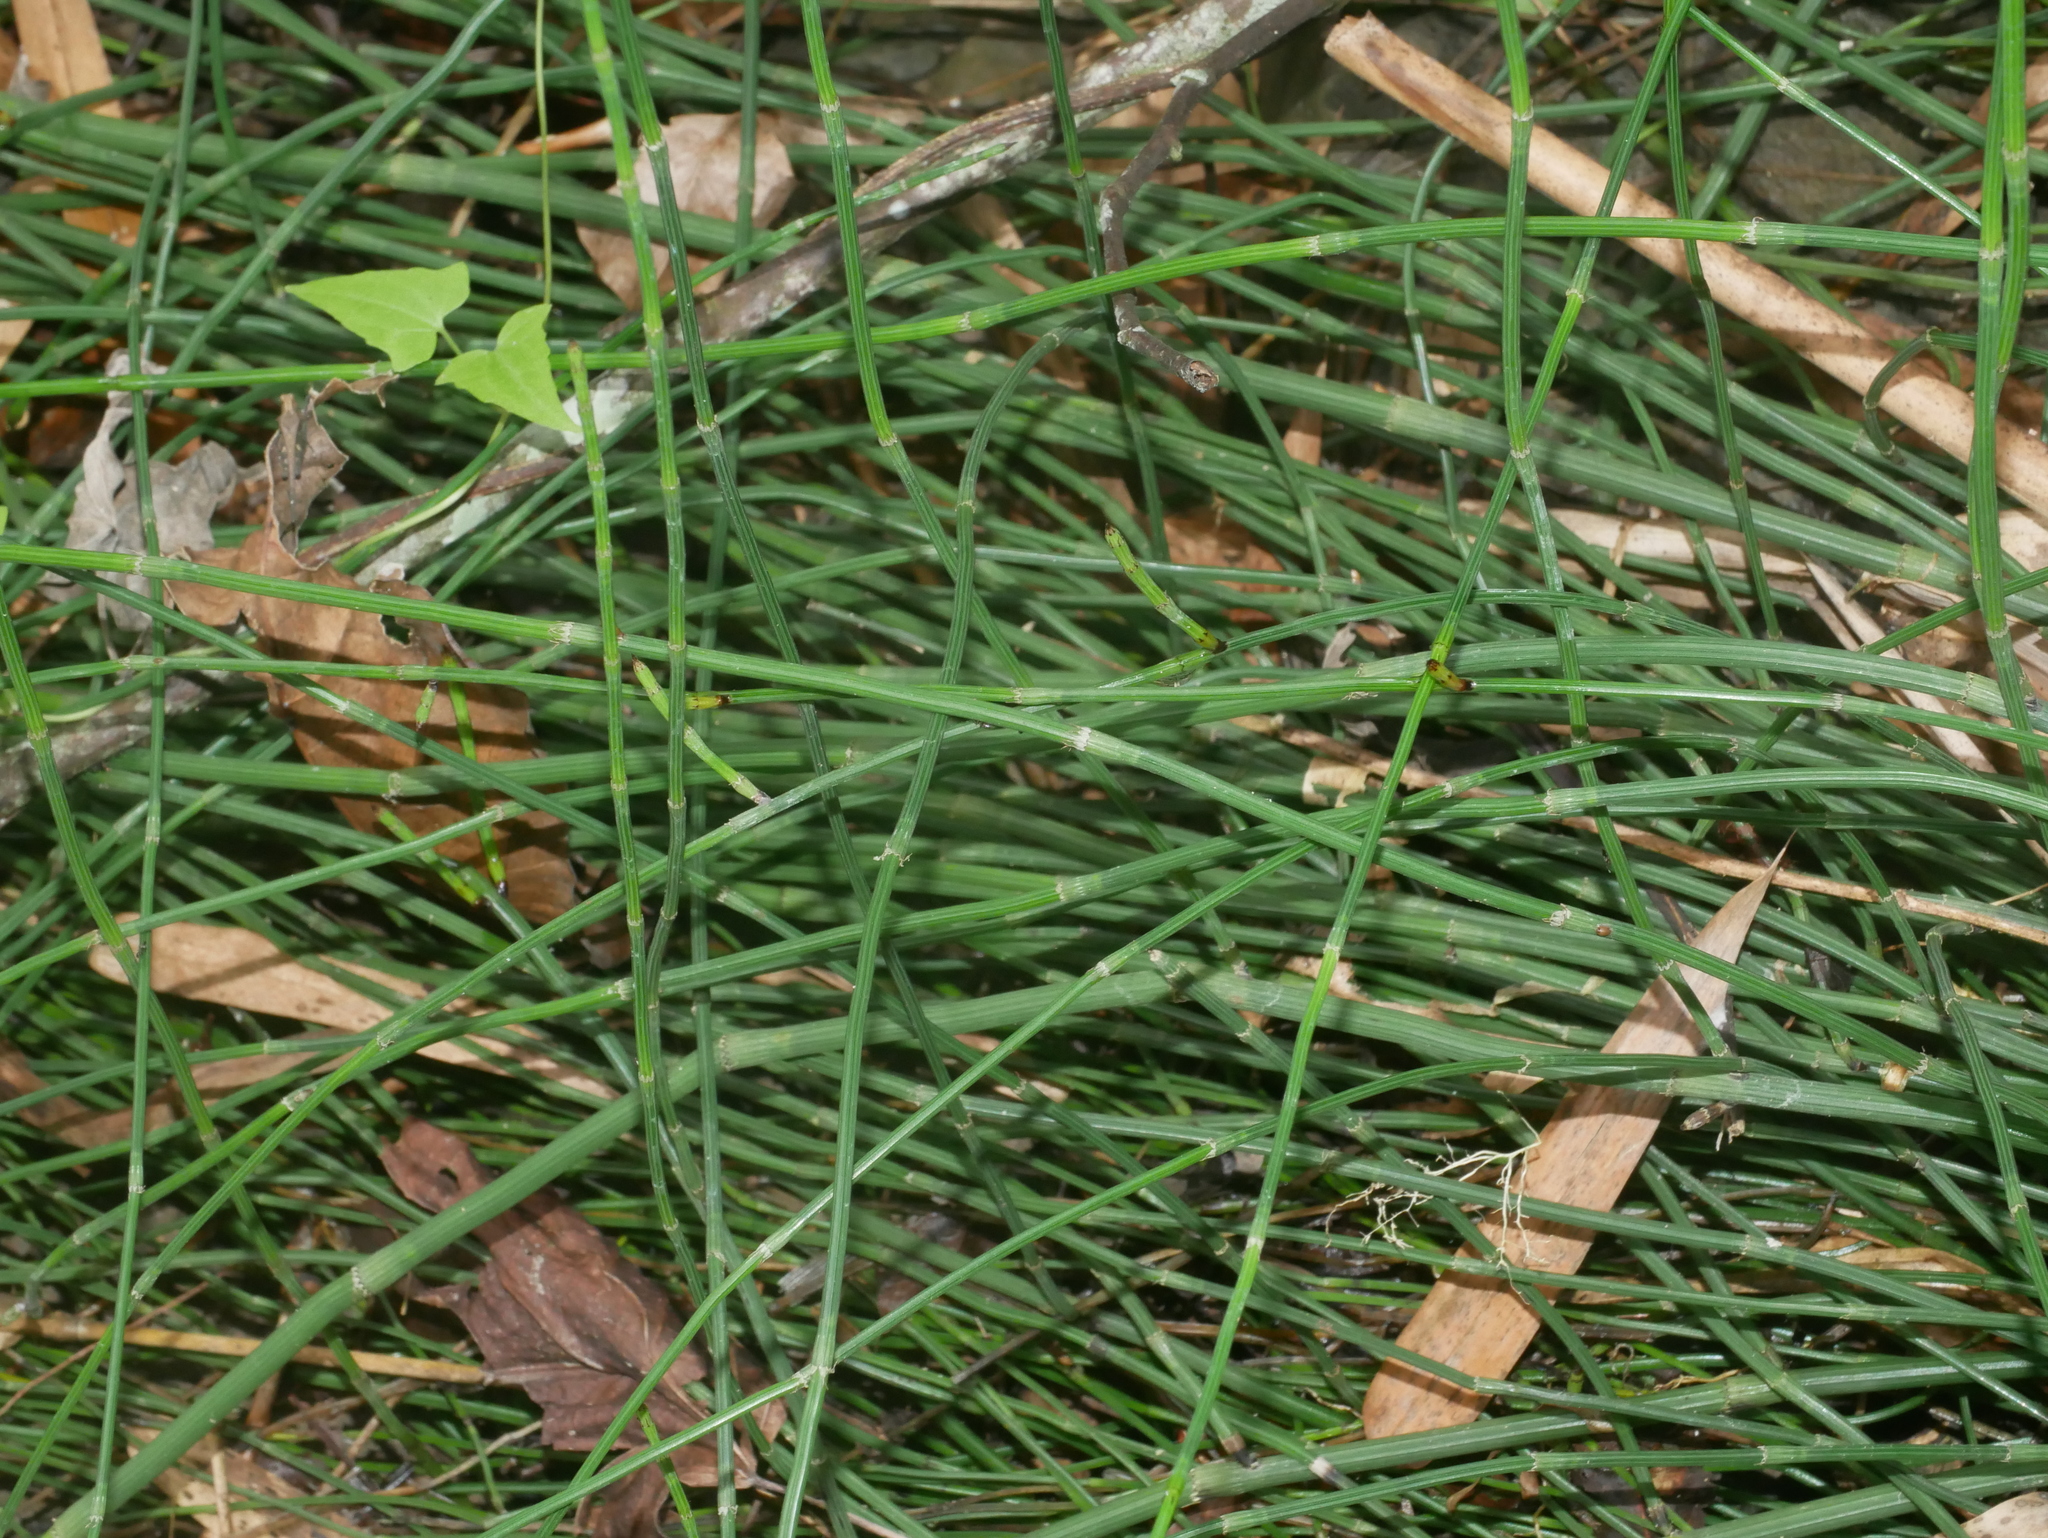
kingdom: Plantae
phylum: Tracheophyta
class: Polypodiopsida
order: Equisetales
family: Equisetaceae
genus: Equisetum
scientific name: Equisetum ramosissimum
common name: Branched horsetail
